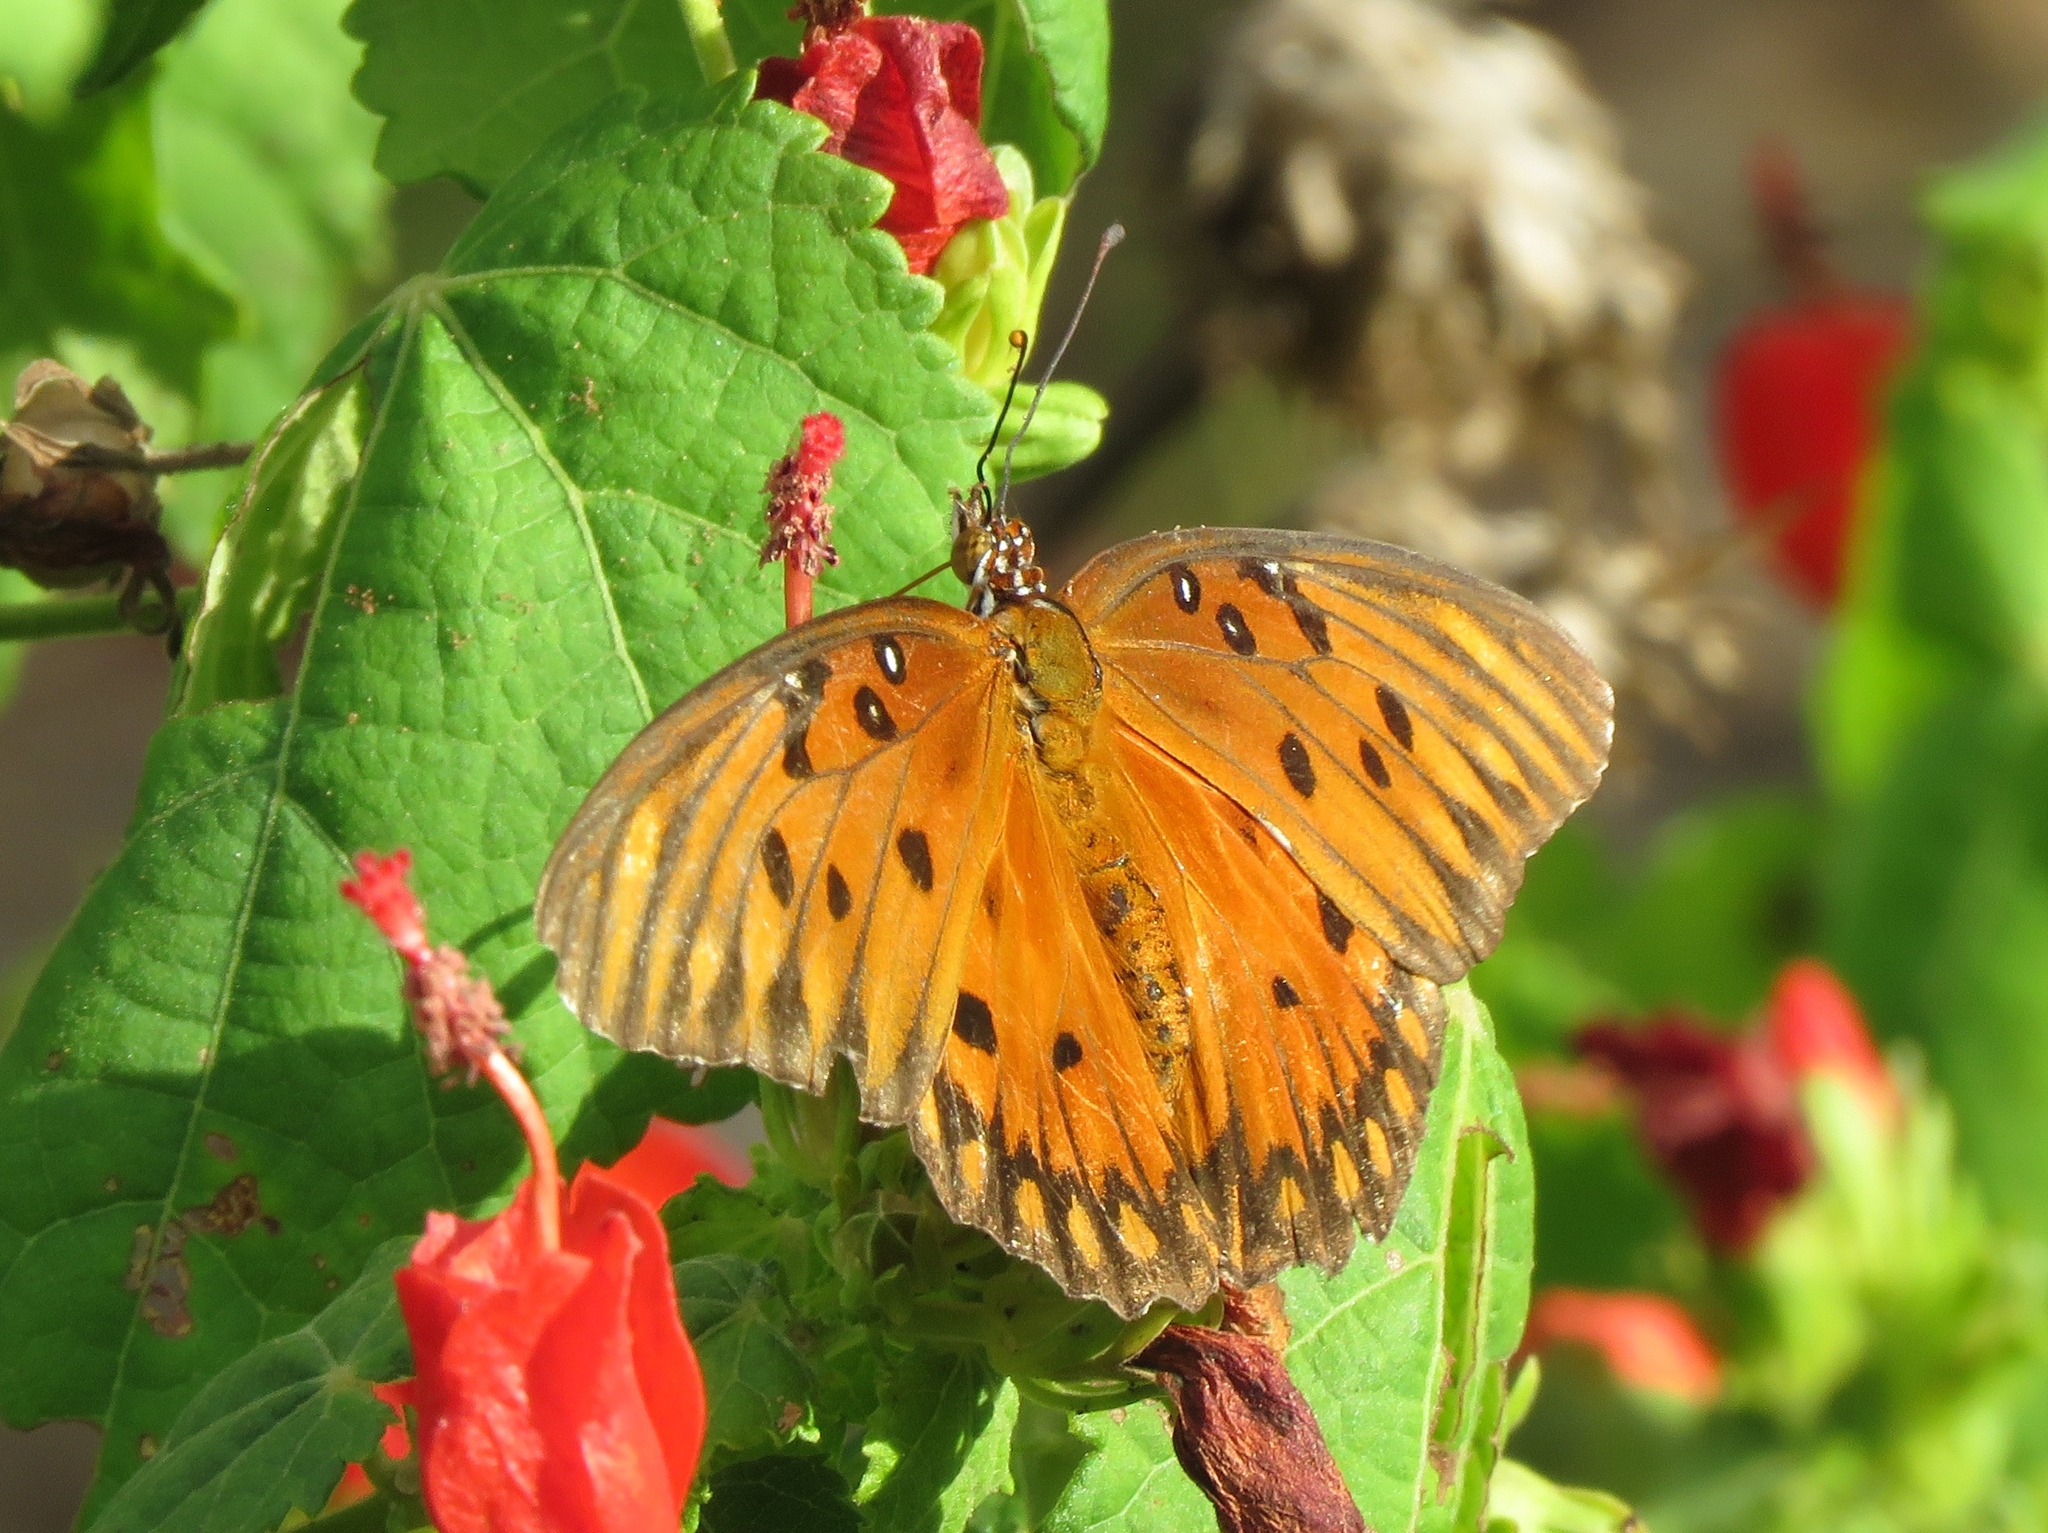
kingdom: Animalia
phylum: Arthropoda
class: Insecta
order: Lepidoptera
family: Nymphalidae
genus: Dione
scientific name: Dione vanillae
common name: Gulf fritillary
